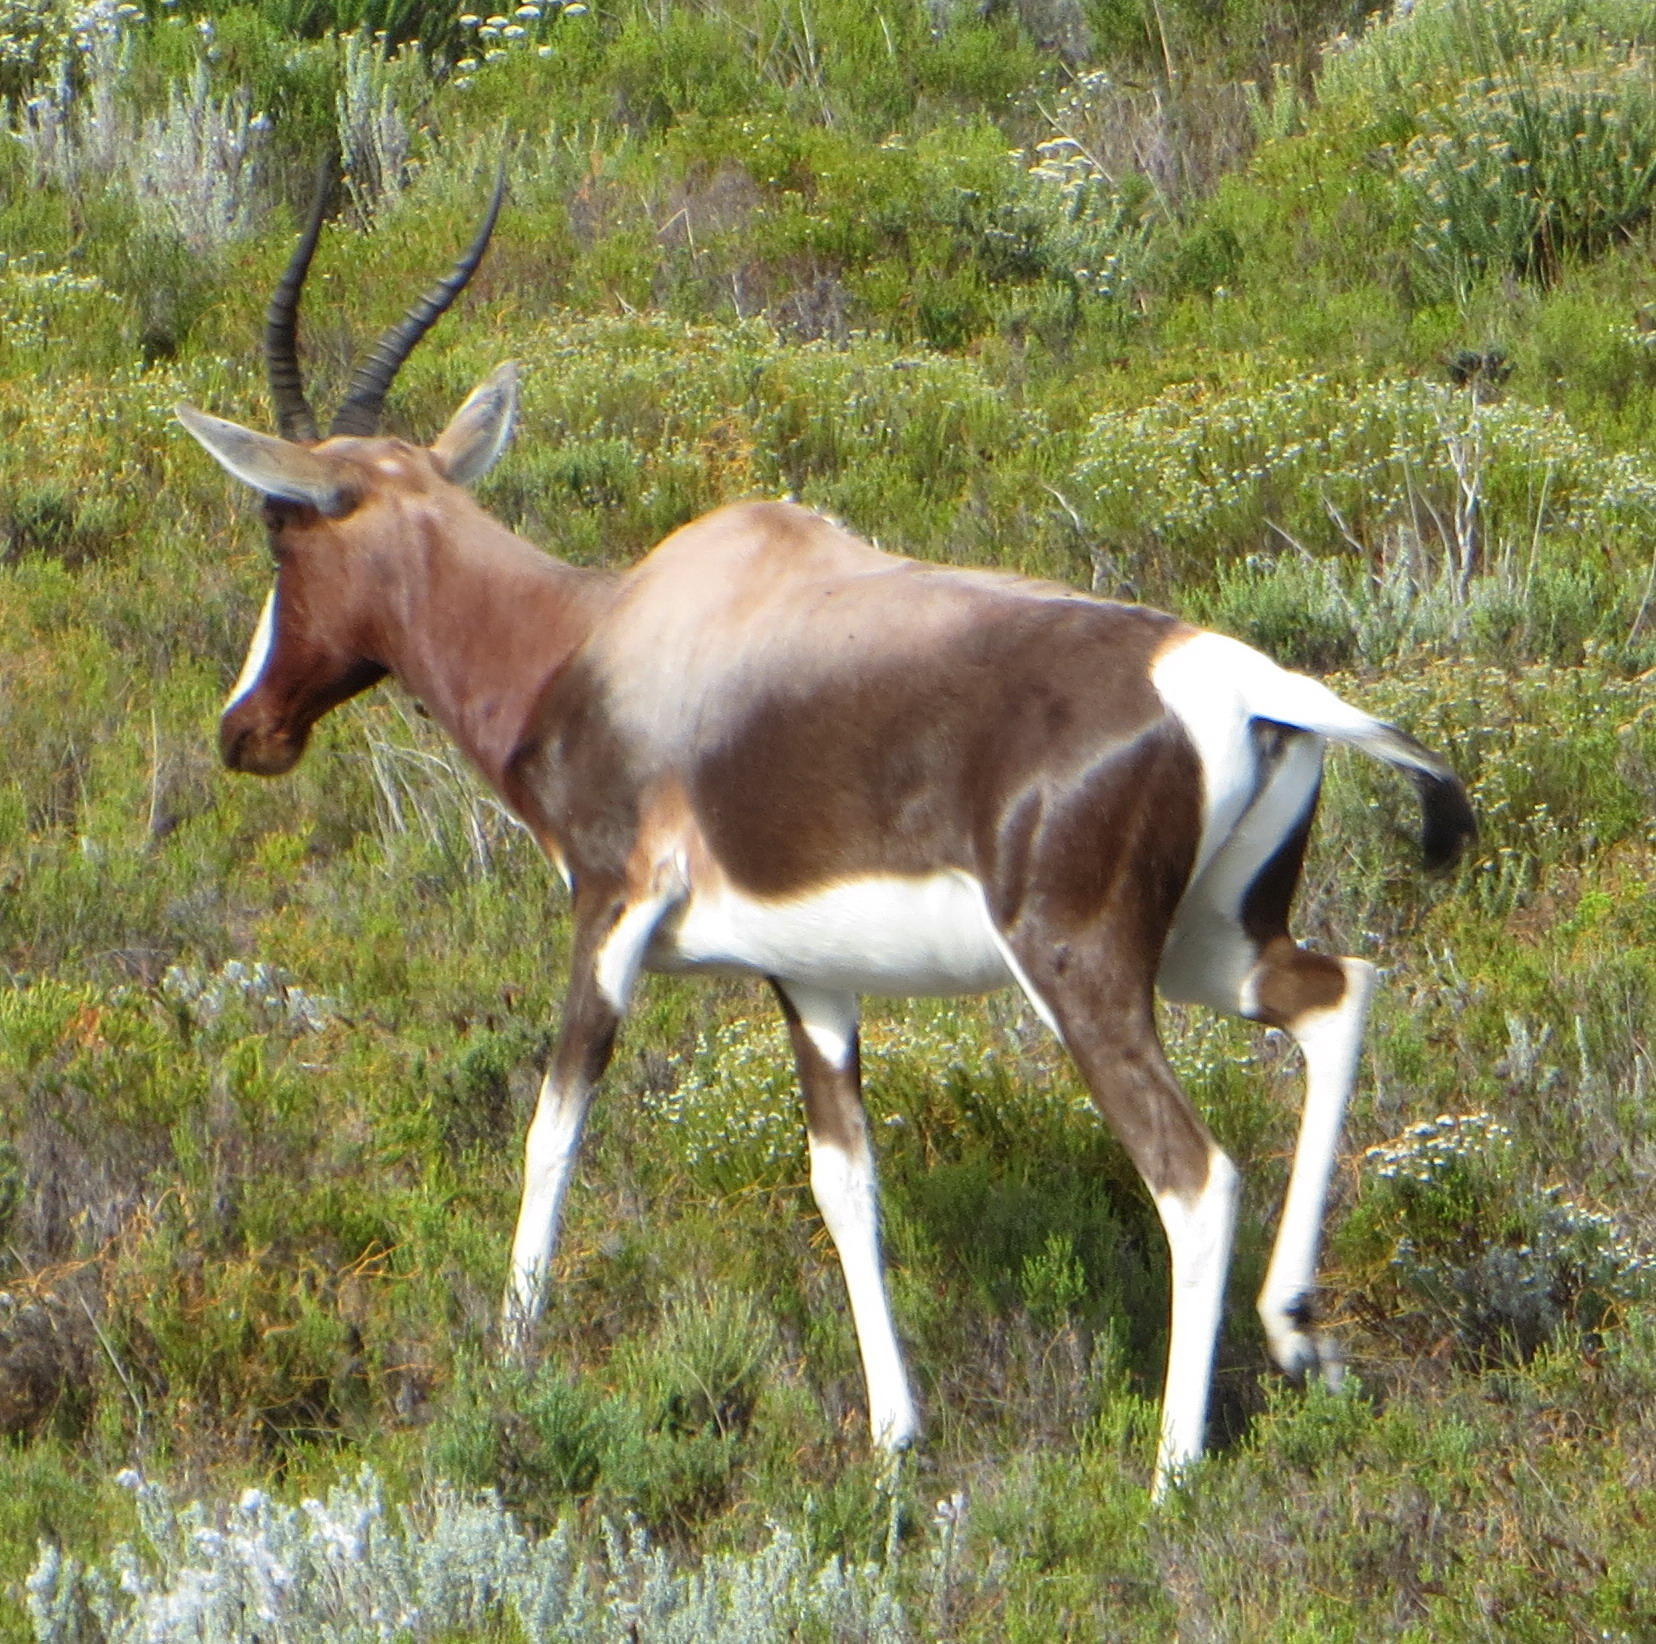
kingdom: Animalia
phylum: Chordata
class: Mammalia
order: Artiodactyla
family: Bovidae
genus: Damaliscus
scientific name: Damaliscus pygargus
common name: Bontebok
